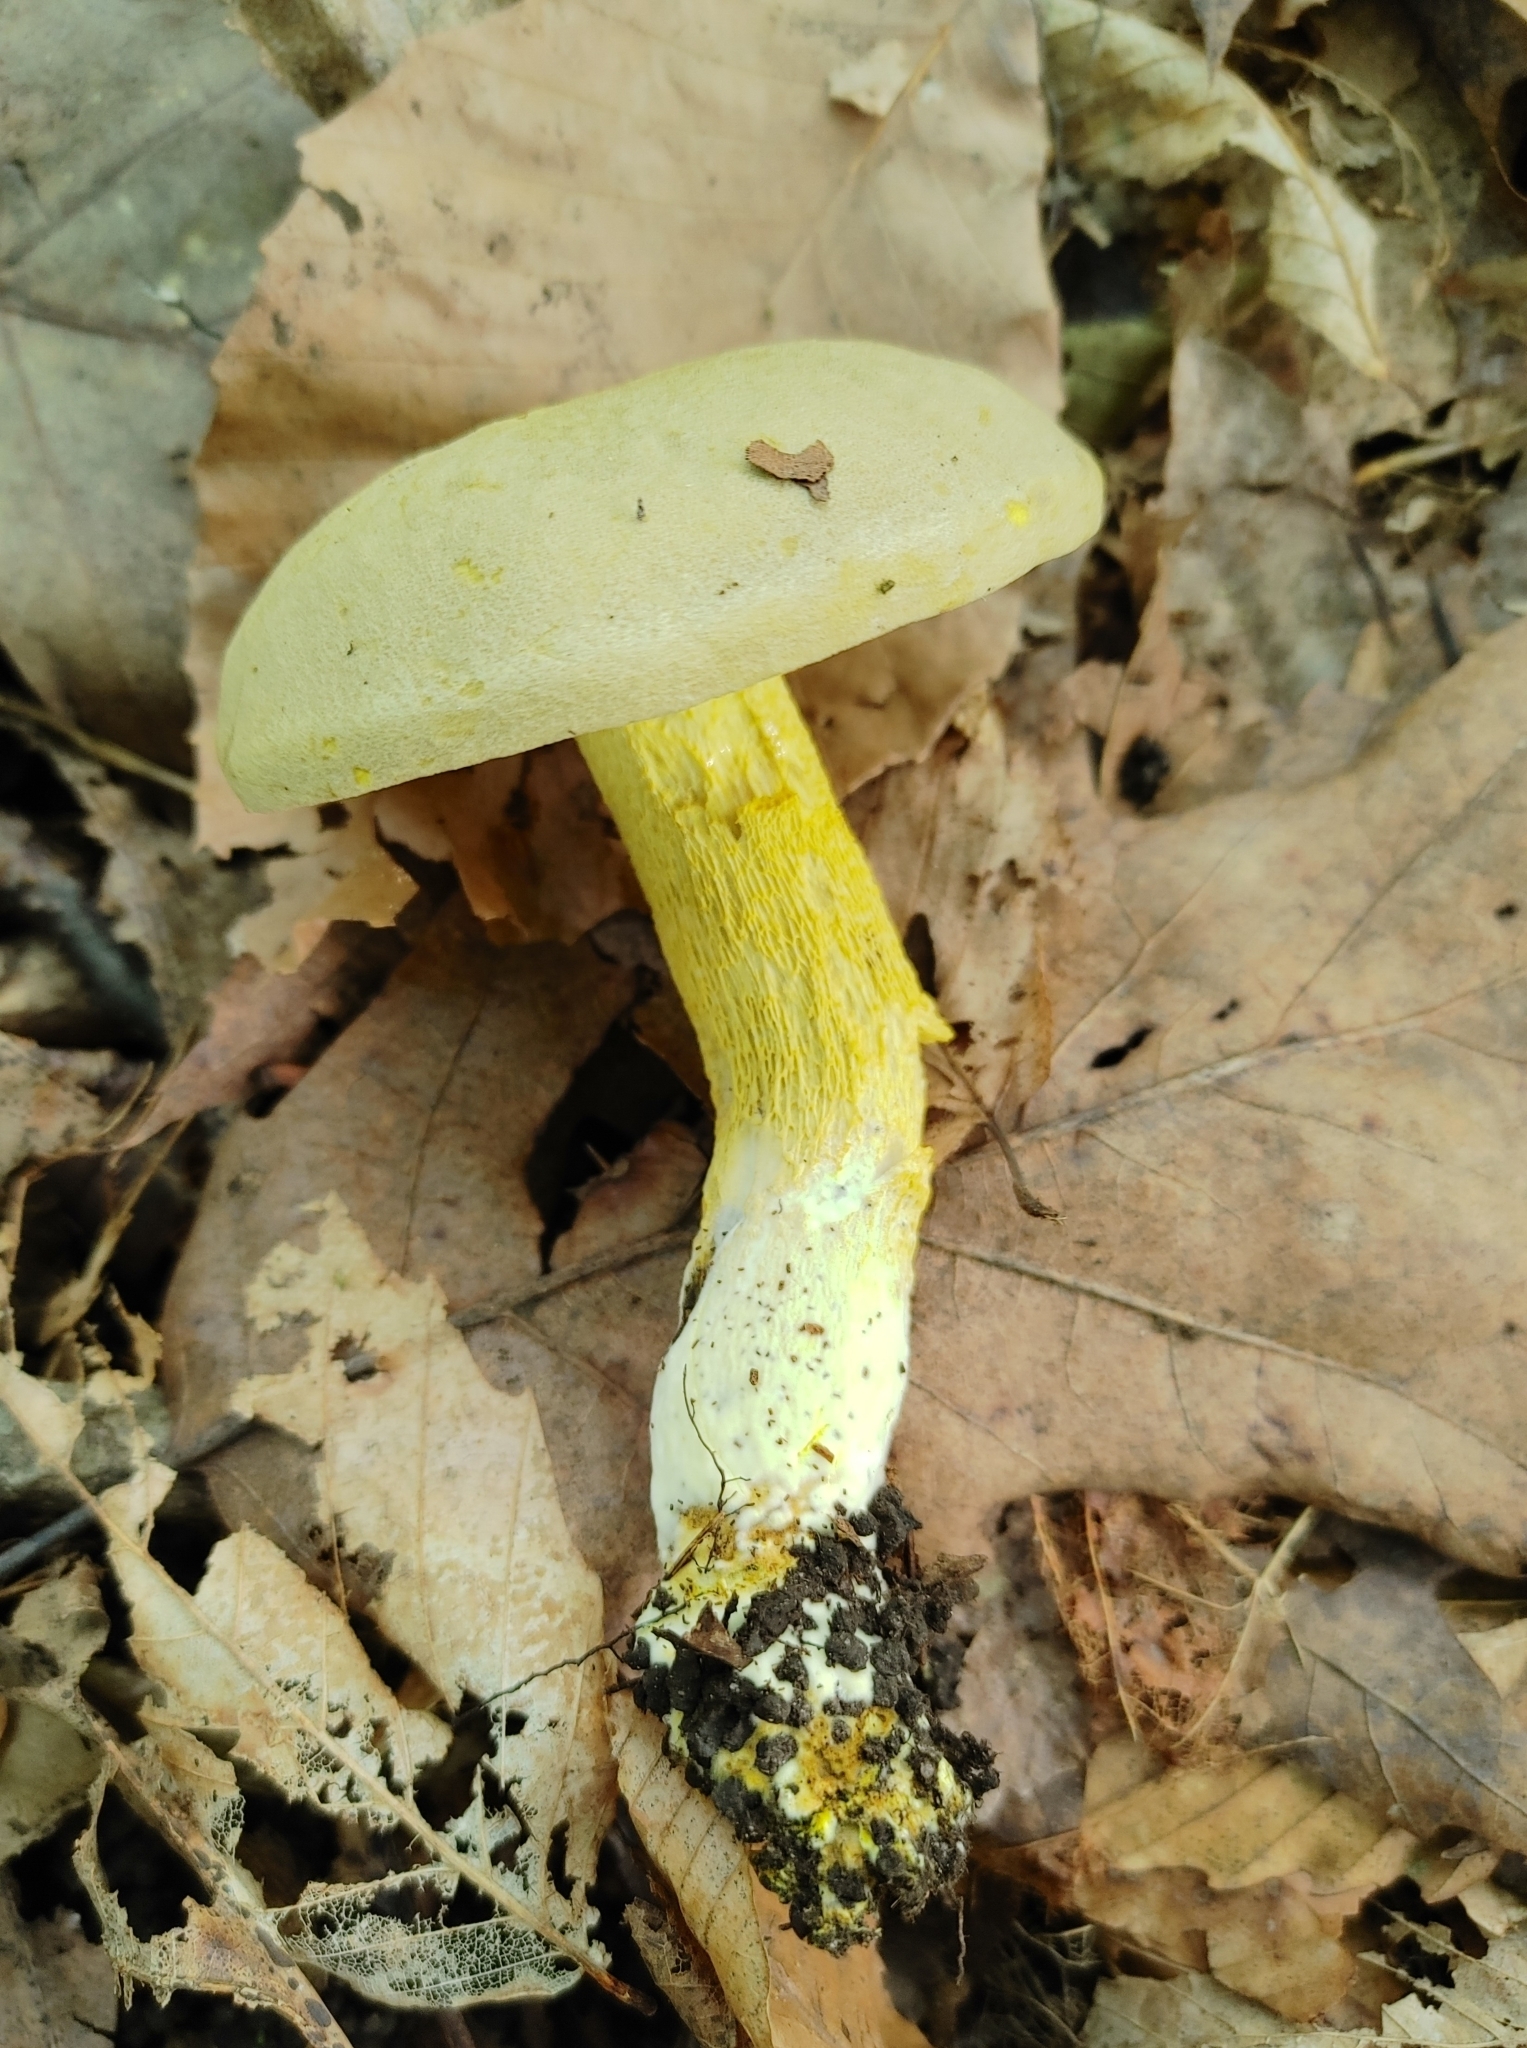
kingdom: Fungi
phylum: Basidiomycota
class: Agaricomycetes
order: Boletales
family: Boletaceae
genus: Retiboletus
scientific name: Retiboletus ornatipes
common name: Ornate-stalked bolete
